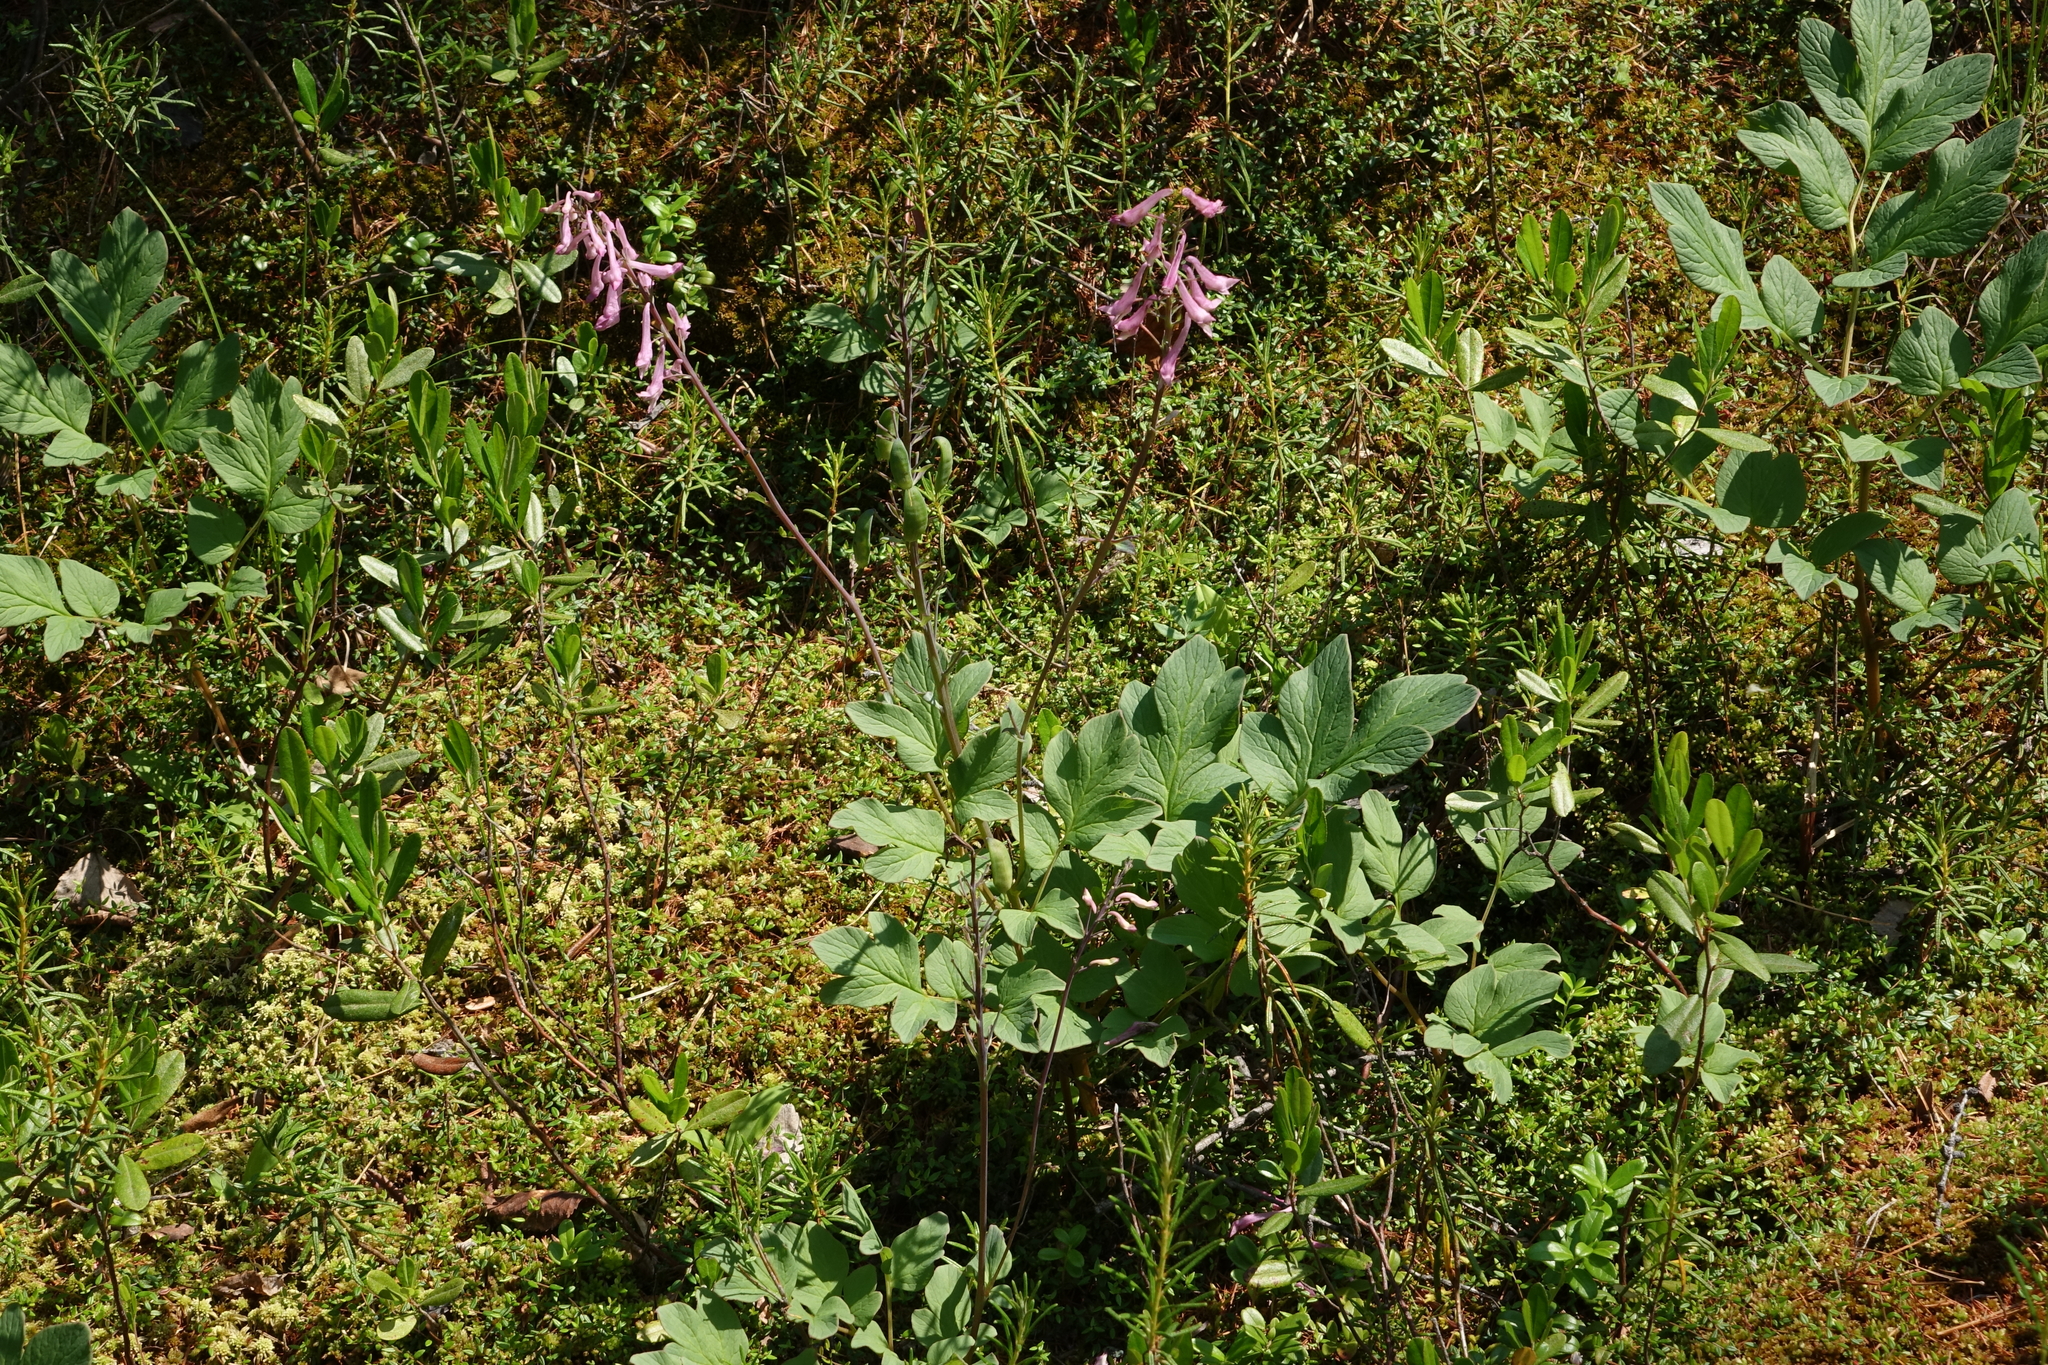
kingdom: Plantae
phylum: Tracheophyta
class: Magnoliopsida
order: Ranunculales
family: Papaveraceae
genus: Corydalis
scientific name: Corydalis paeoniifolia
